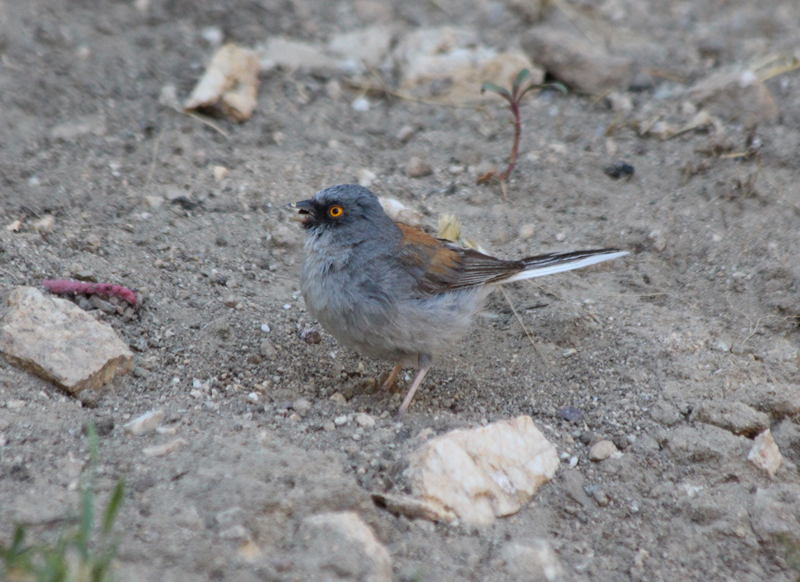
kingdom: Animalia
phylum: Chordata
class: Aves
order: Passeriformes
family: Passerellidae
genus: Junco
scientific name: Junco phaeonotus
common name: Yellow-eyed junco
